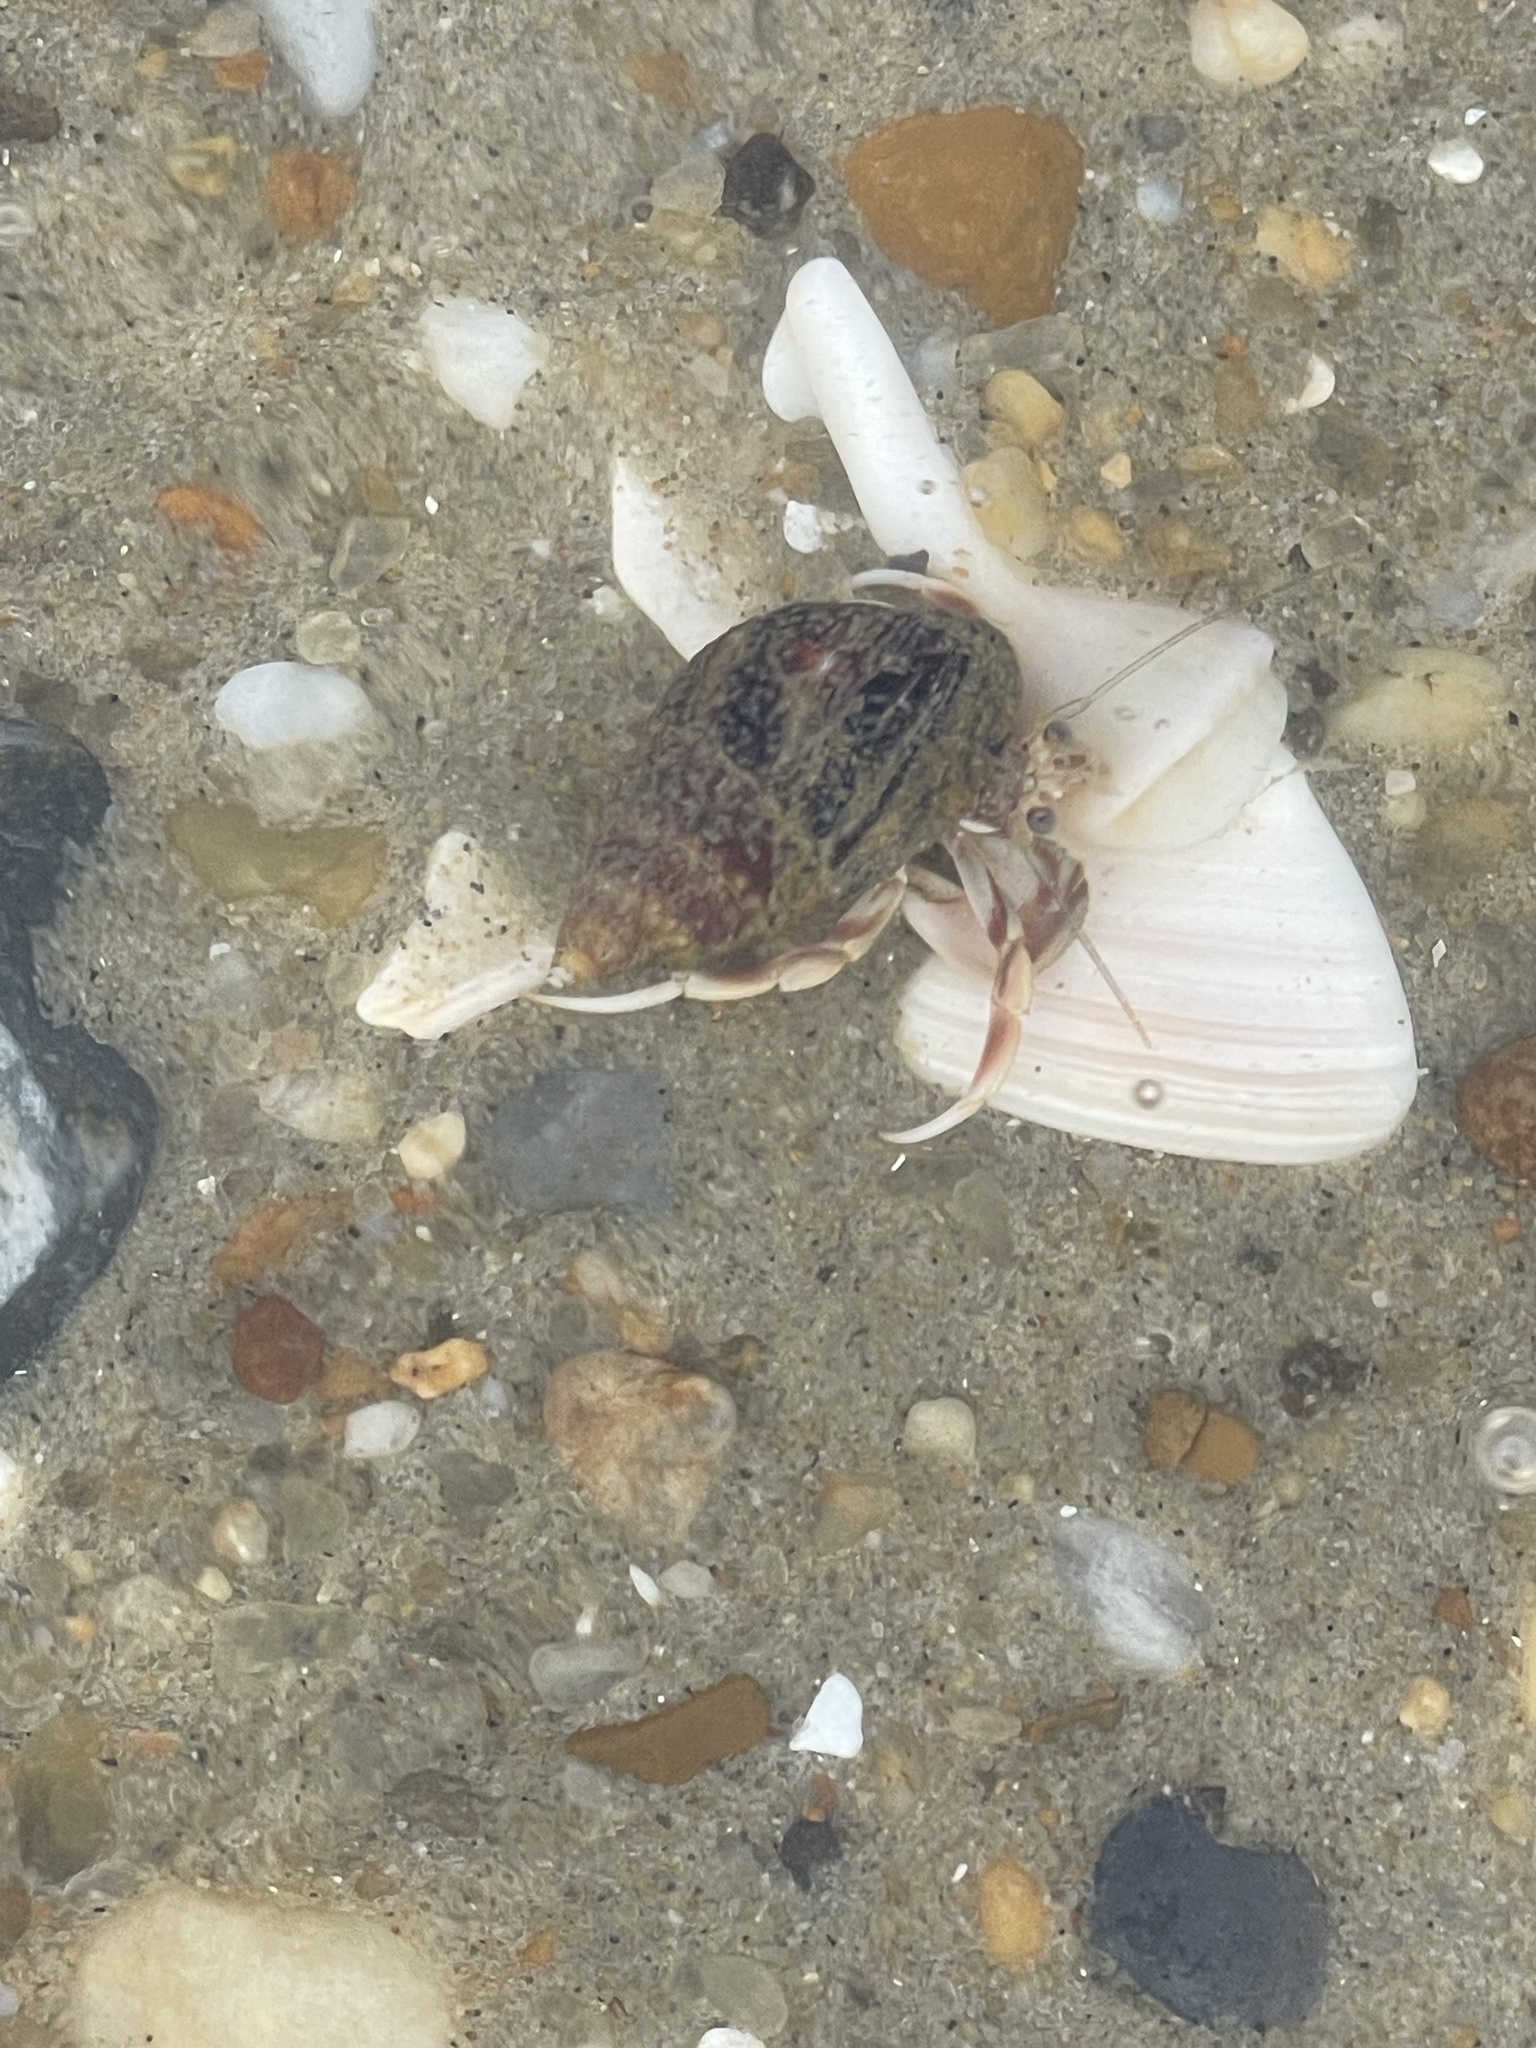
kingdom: Animalia
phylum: Arthropoda
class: Malacostraca
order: Decapoda
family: Paguridae
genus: Pagurus
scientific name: Pagurus longicarpus
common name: Long-armed hermit crab
